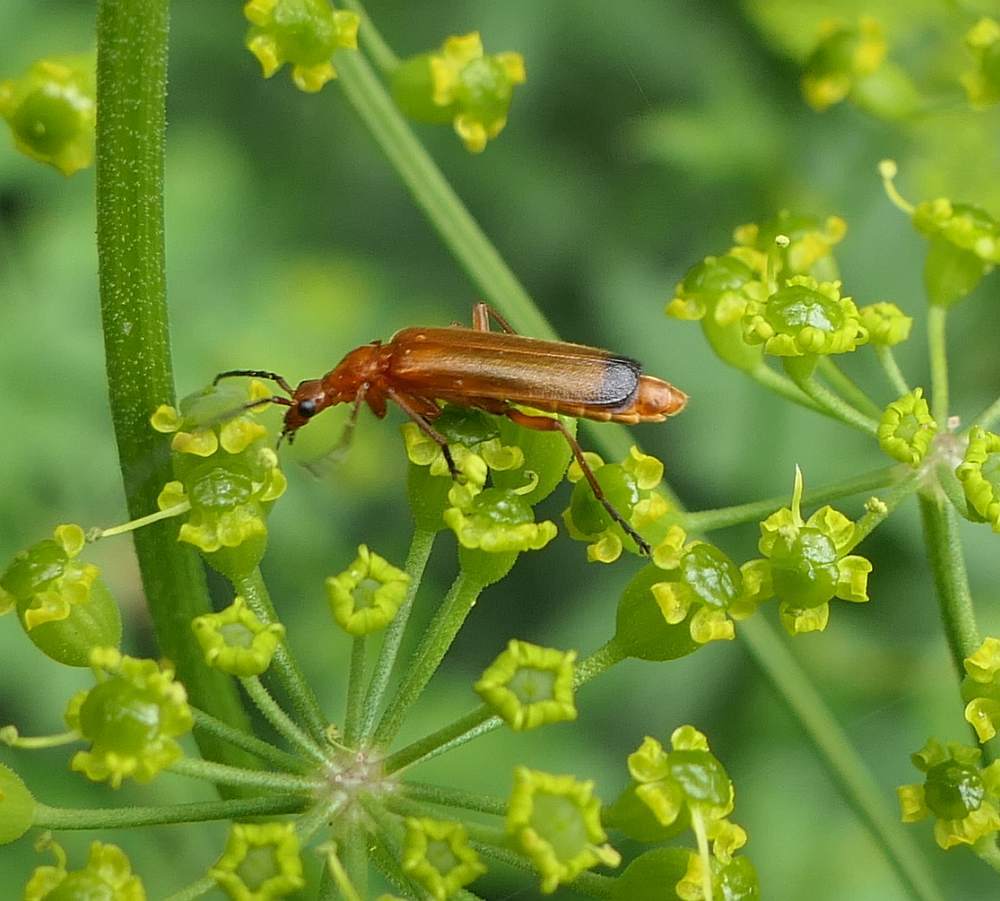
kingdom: Animalia
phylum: Arthropoda
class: Insecta
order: Coleoptera
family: Cantharidae
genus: Rhagonycha
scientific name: Rhagonycha fulva
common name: Common red soldier beetle
